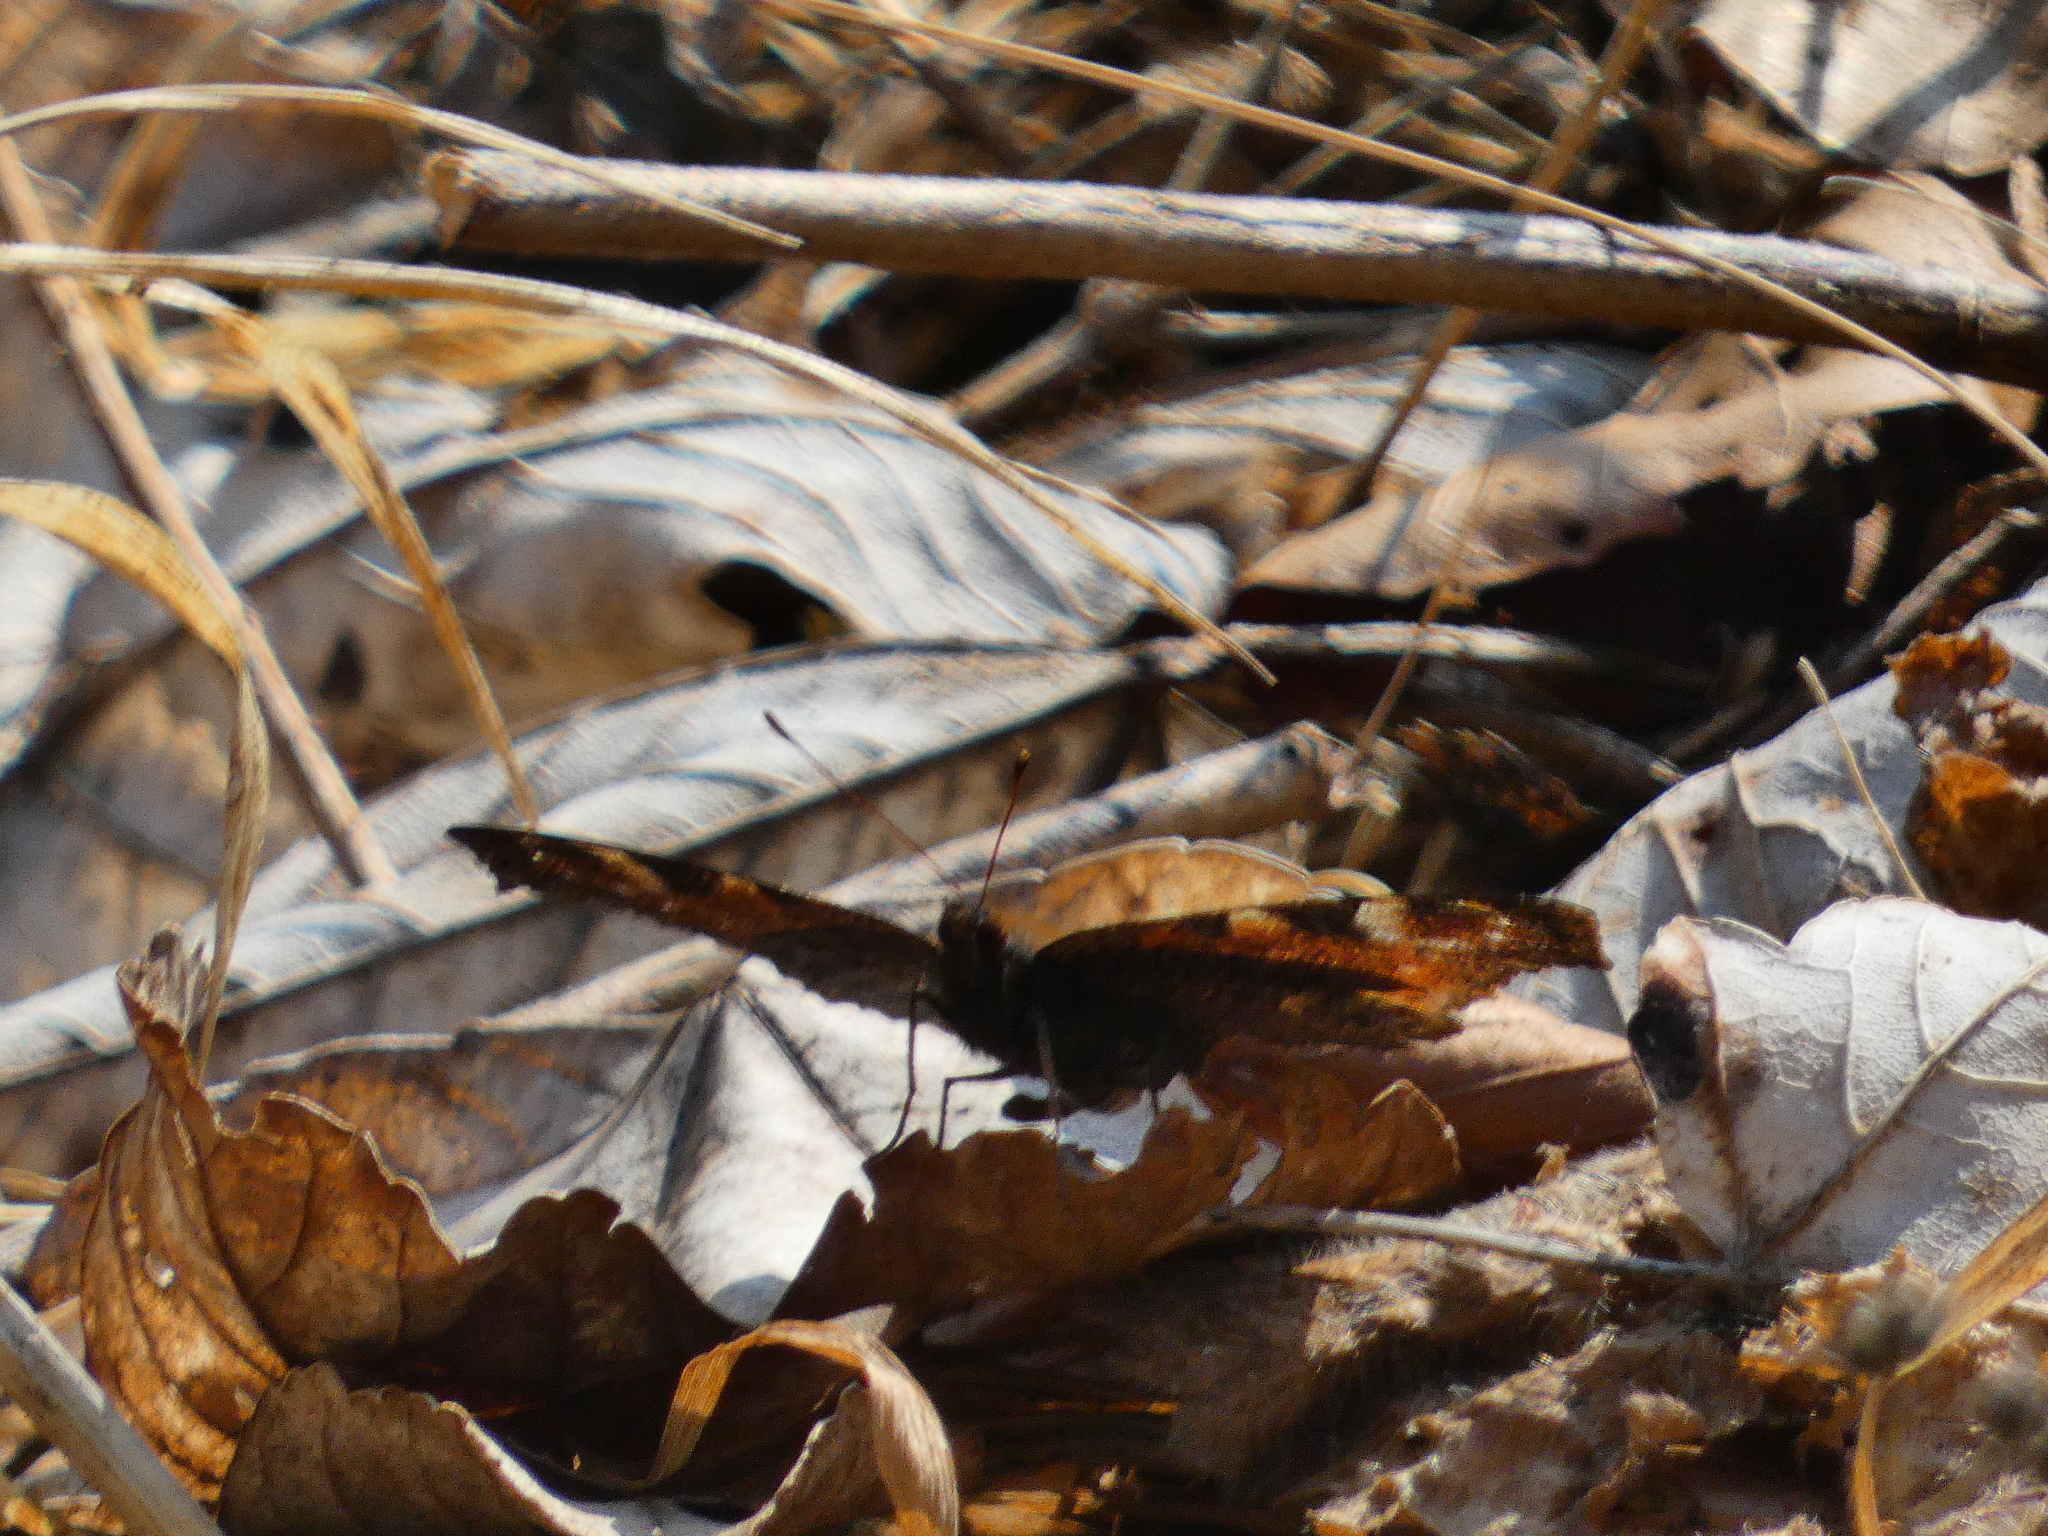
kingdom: Animalia
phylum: Arthropoda
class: Insecta
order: Lepidoptera
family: Nymphalidae
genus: Aglais
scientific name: Aglais io
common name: Peacock
